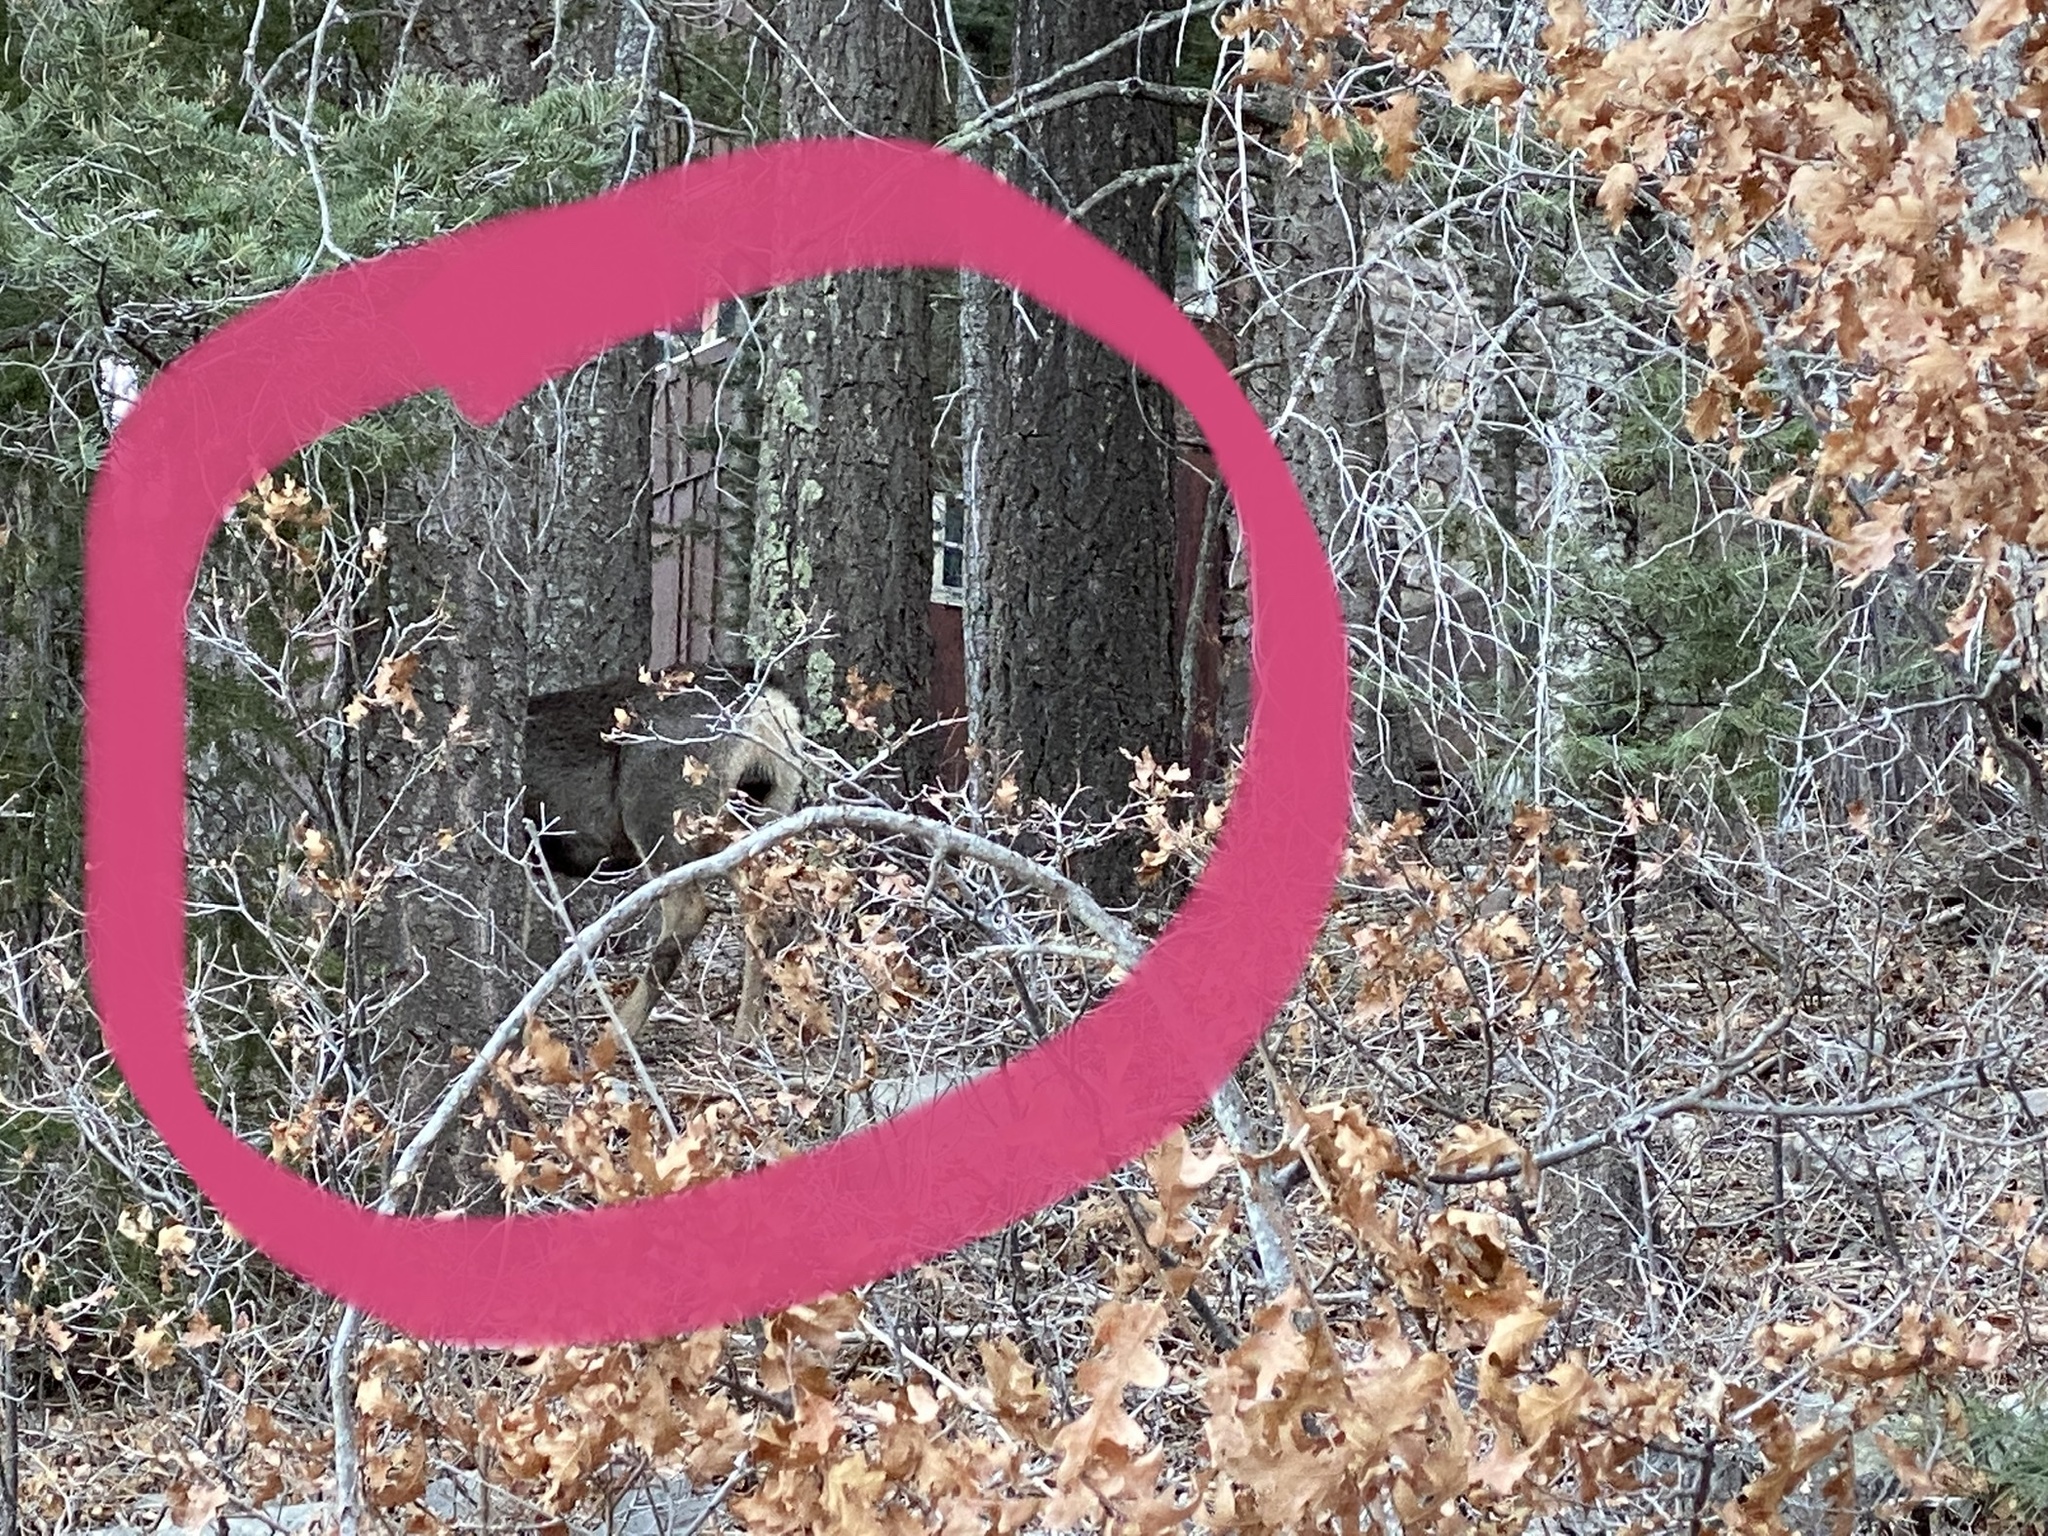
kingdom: Animalia
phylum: Chordata
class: Mammalia
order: Artiodactyla
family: Cervidae
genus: Odocoileus
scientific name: Odocoileus hemionus
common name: Mule deer
